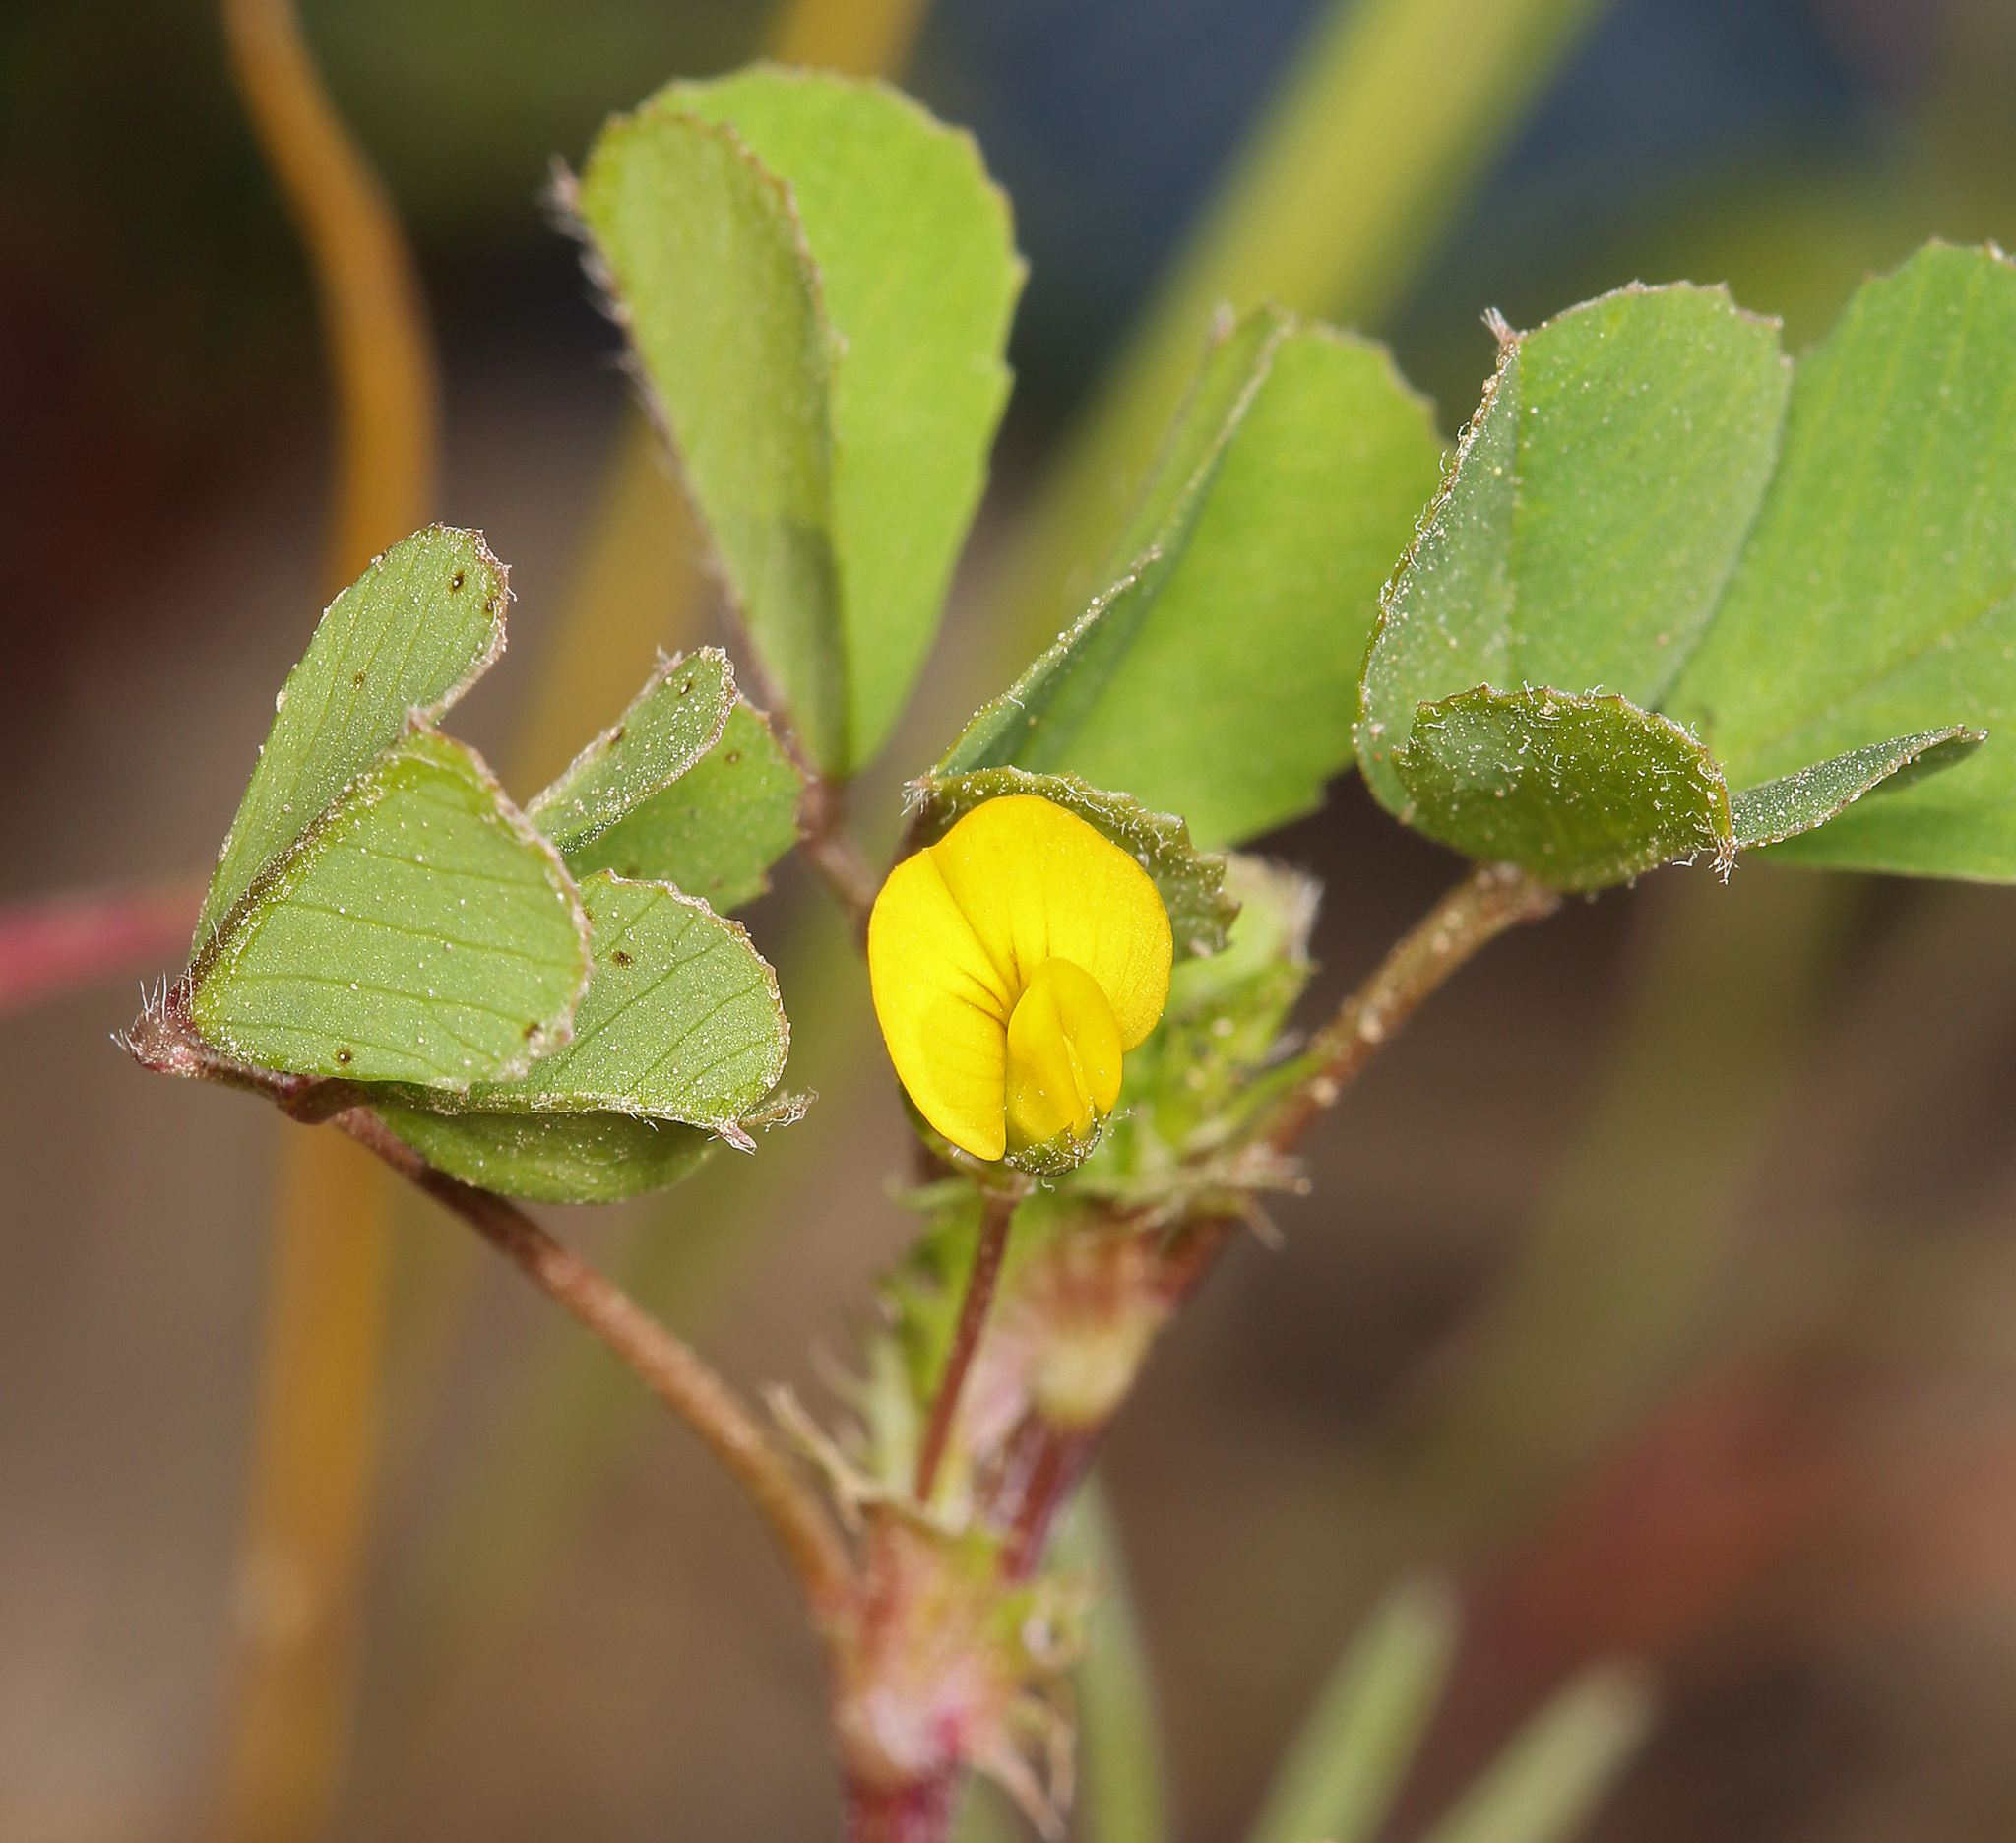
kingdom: Plantae
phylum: Tracheophyta
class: Magnoliopsida
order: Fabales
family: Fabaceae
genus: Medicago
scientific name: Medicago polymorpha
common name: Burclover
